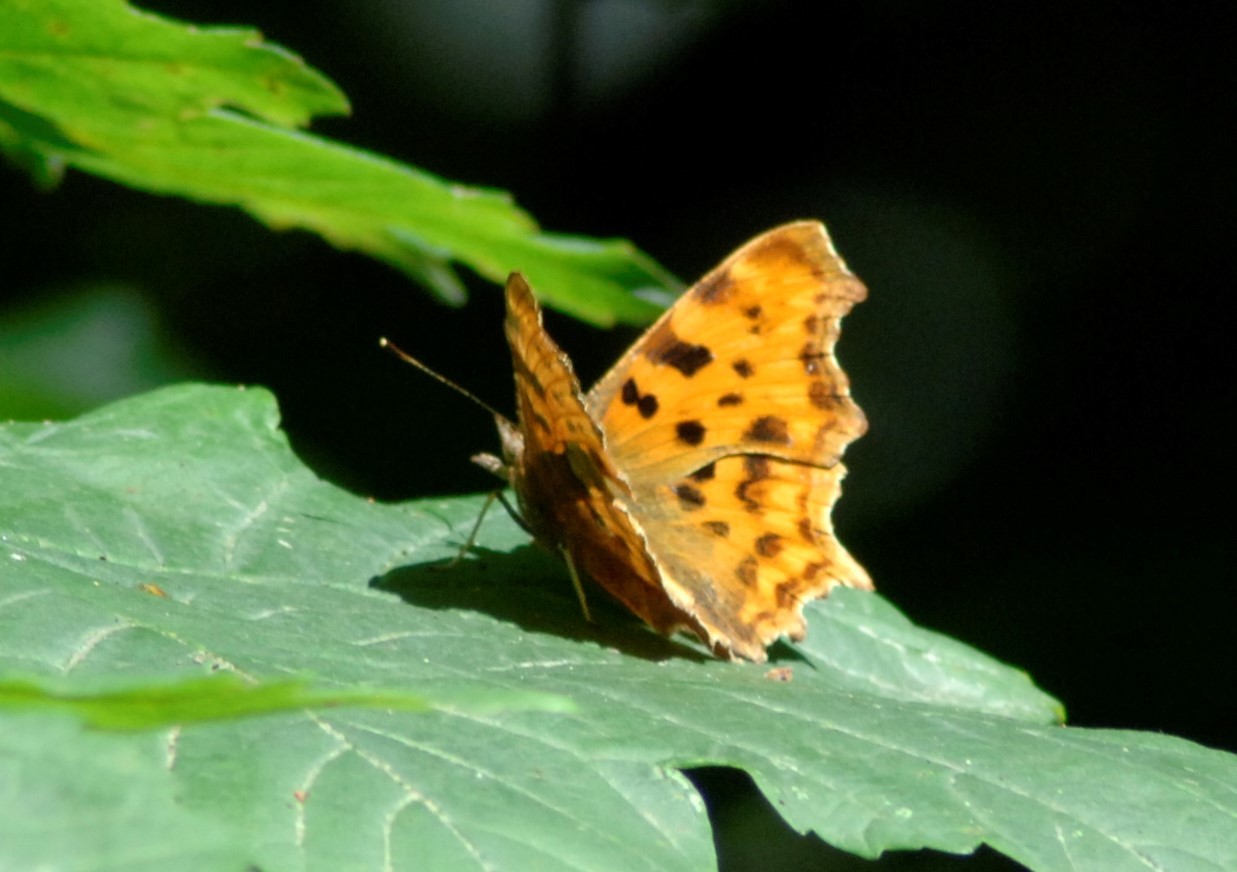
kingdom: Animalia
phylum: Arthropoda
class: Insecta
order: Lepidoptera
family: Nymphalidae
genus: Polygonia
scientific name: Polygonia c-album
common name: Comma
